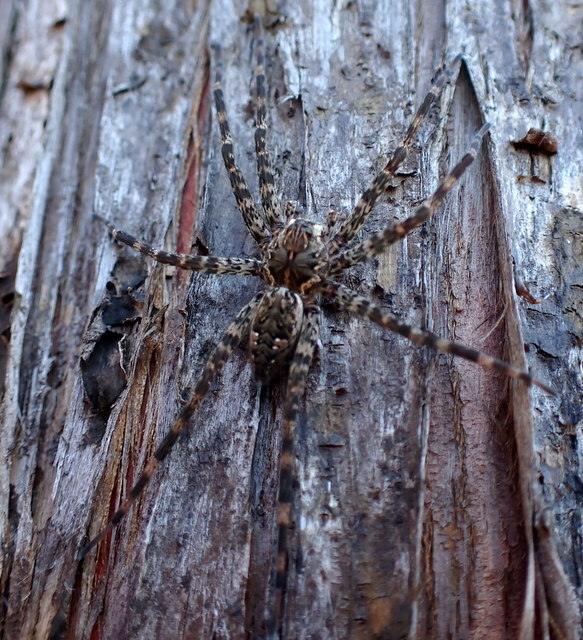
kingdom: Animalia
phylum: Arthropoda
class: Arachnida
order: Araneae
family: Pisauridae
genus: Dolomedes
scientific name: Dolomedes tenebrosus
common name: Dark fishing spider
